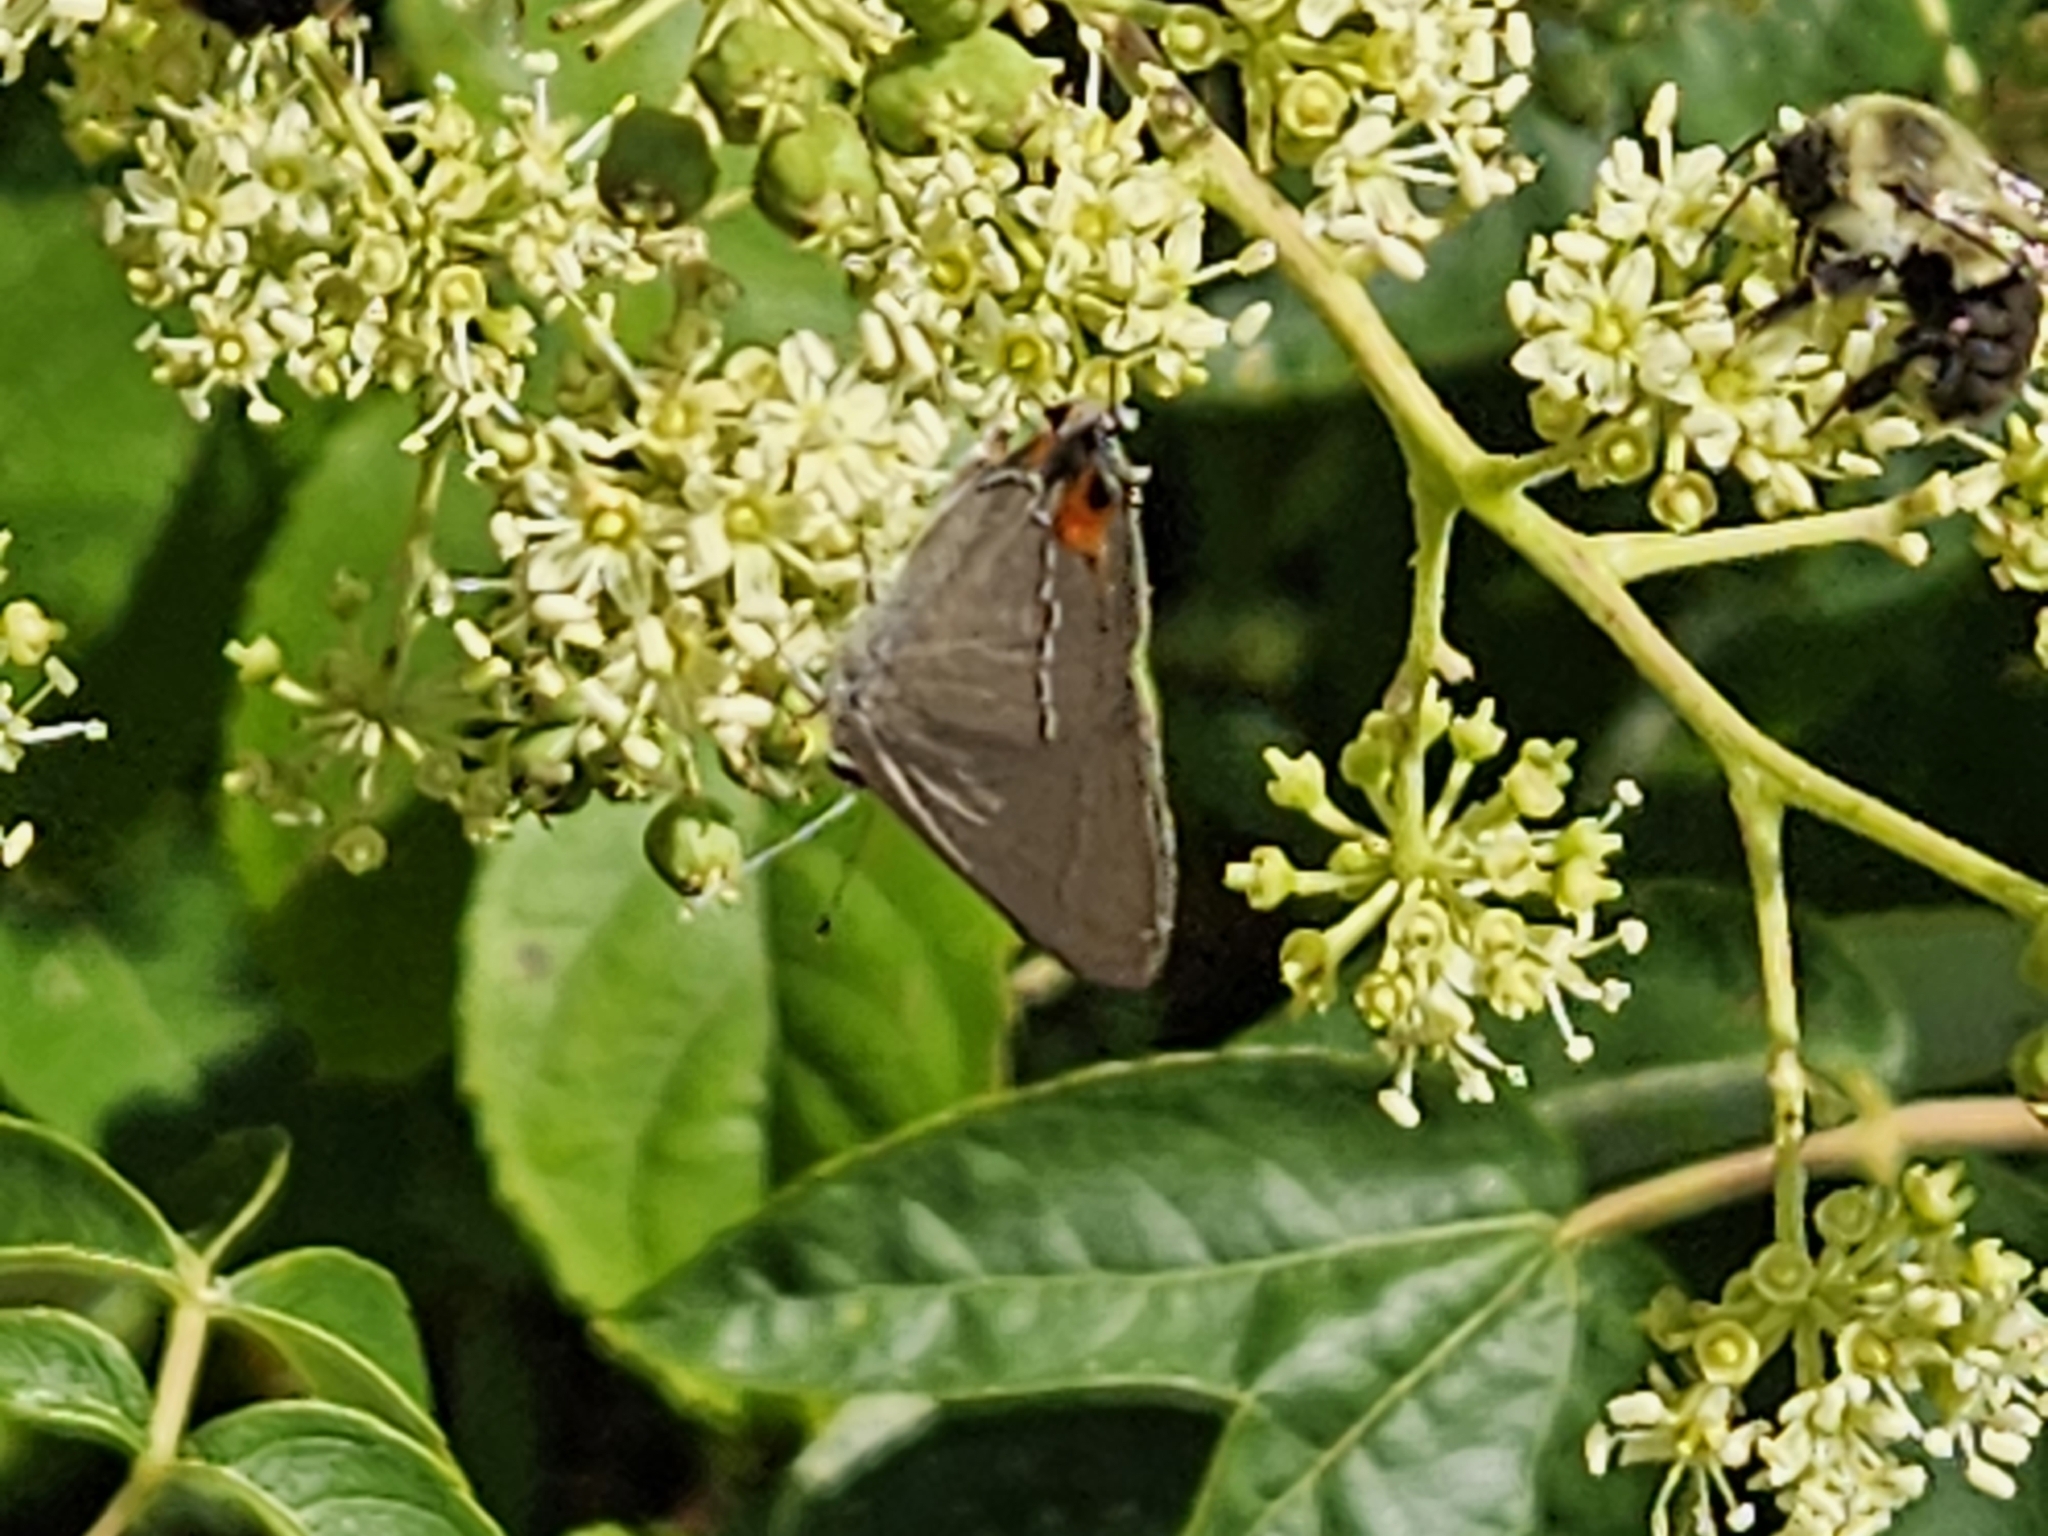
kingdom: Animalia
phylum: Arthropoda
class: Insecta
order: Lepidoptera
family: Lycaenidae
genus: Strymon
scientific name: Strymon melinus
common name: Gray hairstreak
